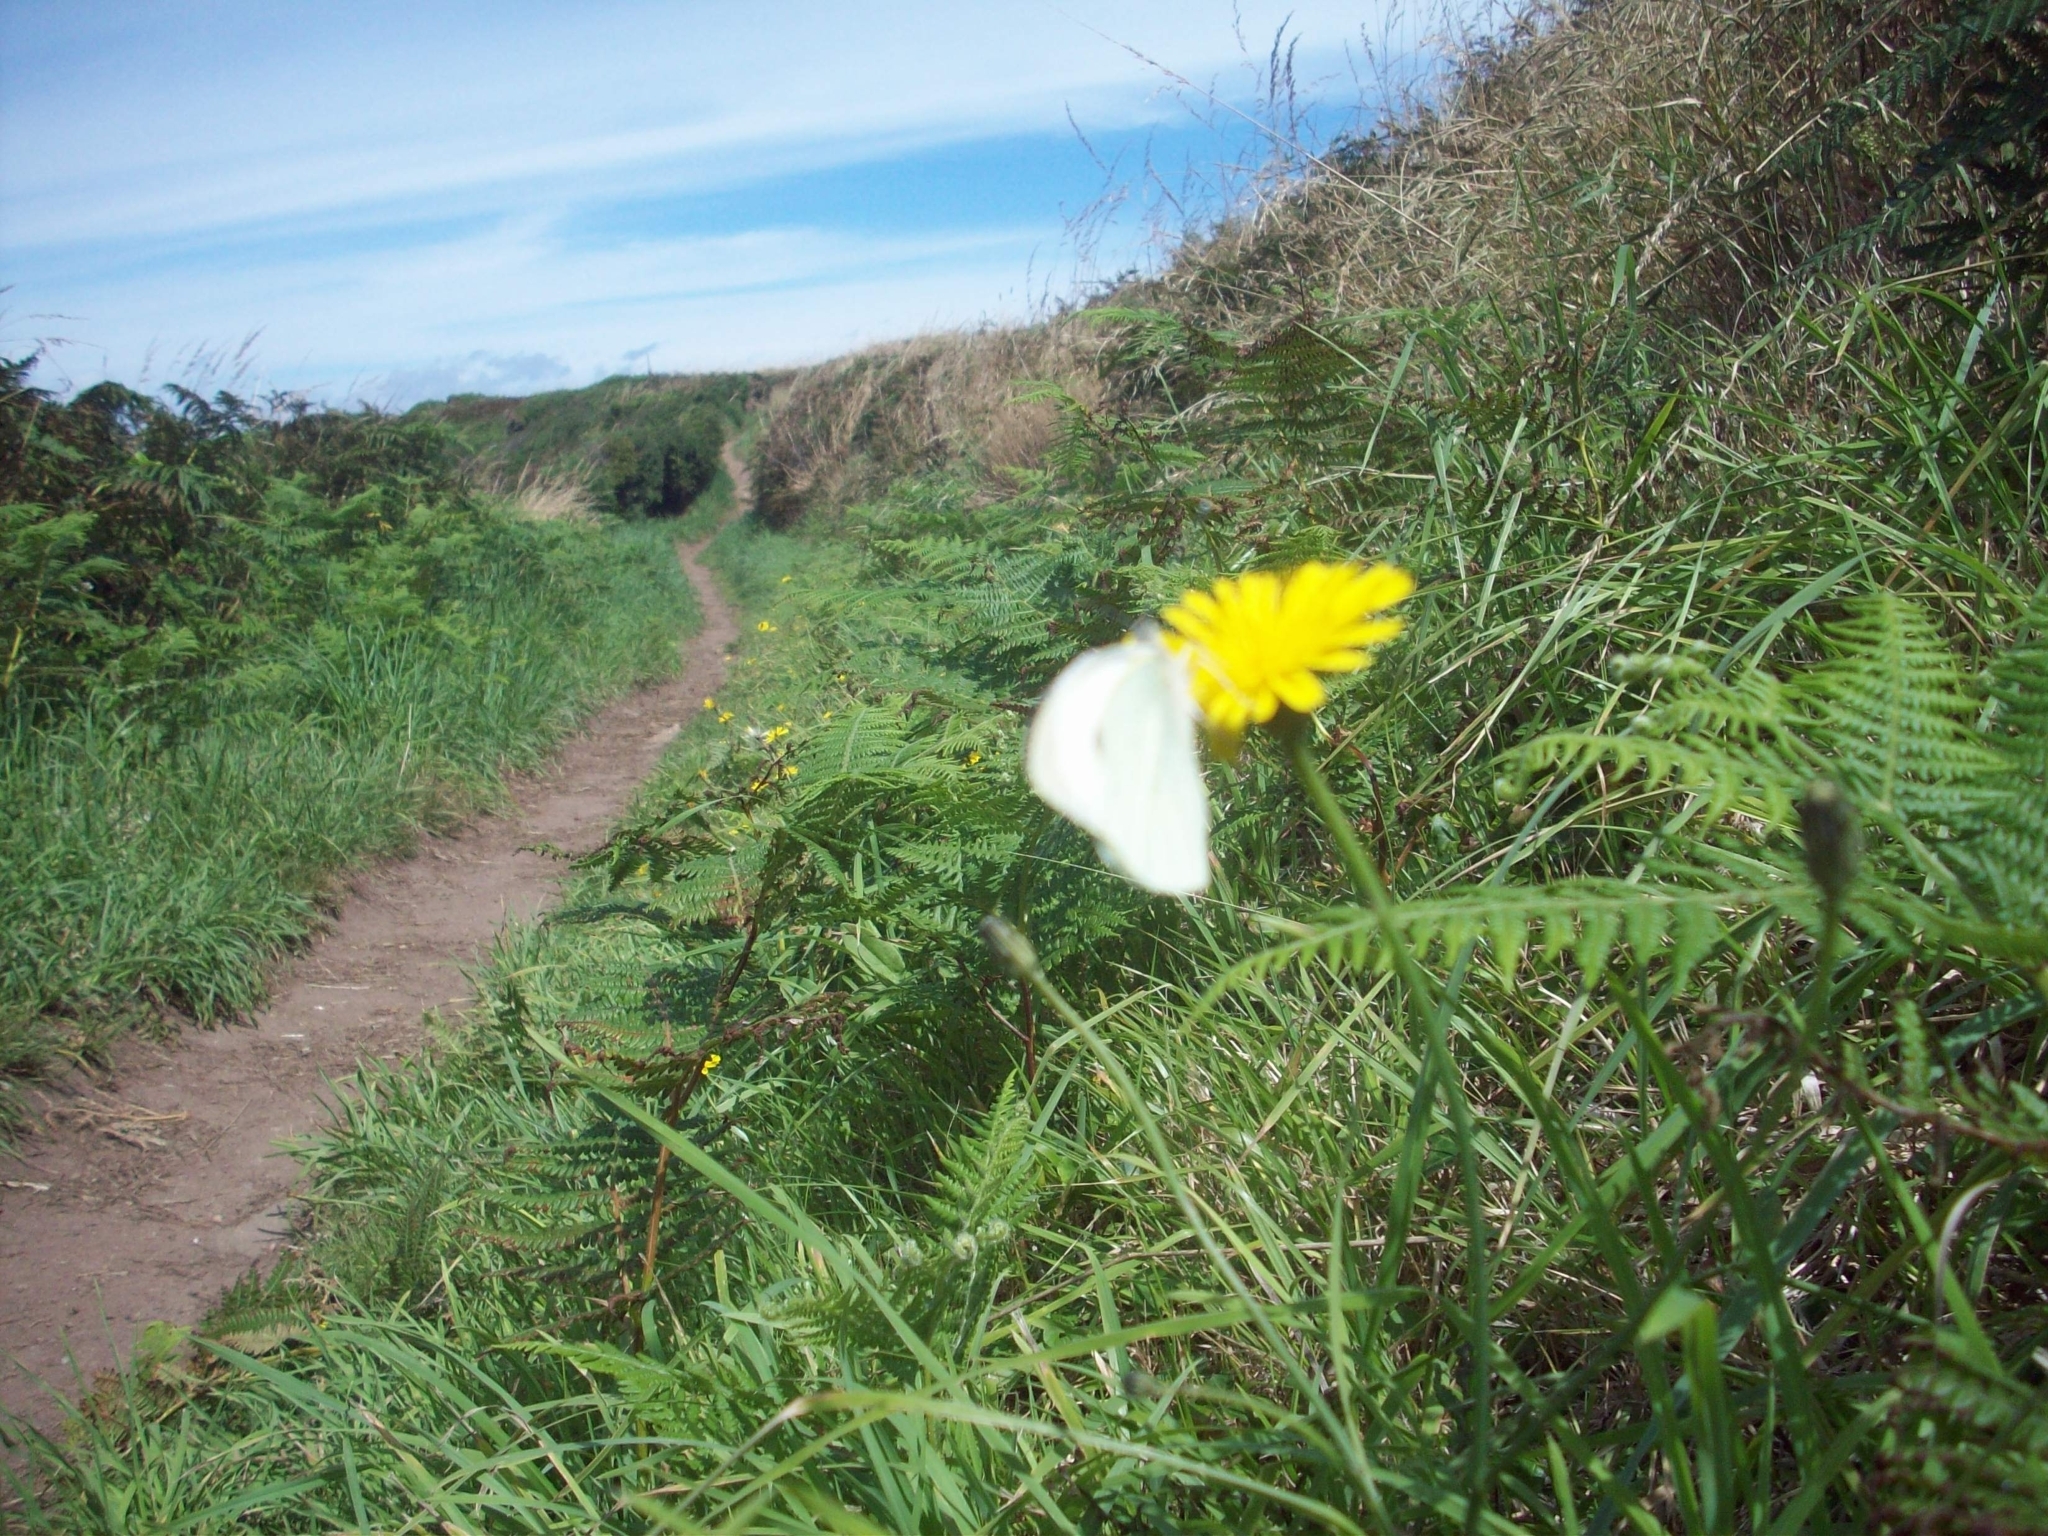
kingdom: Animalia
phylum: Arthropoda
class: Insecta
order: Lepidoptera
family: Pieridae
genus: Pieris
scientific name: Pieris brassicae
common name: Large white
